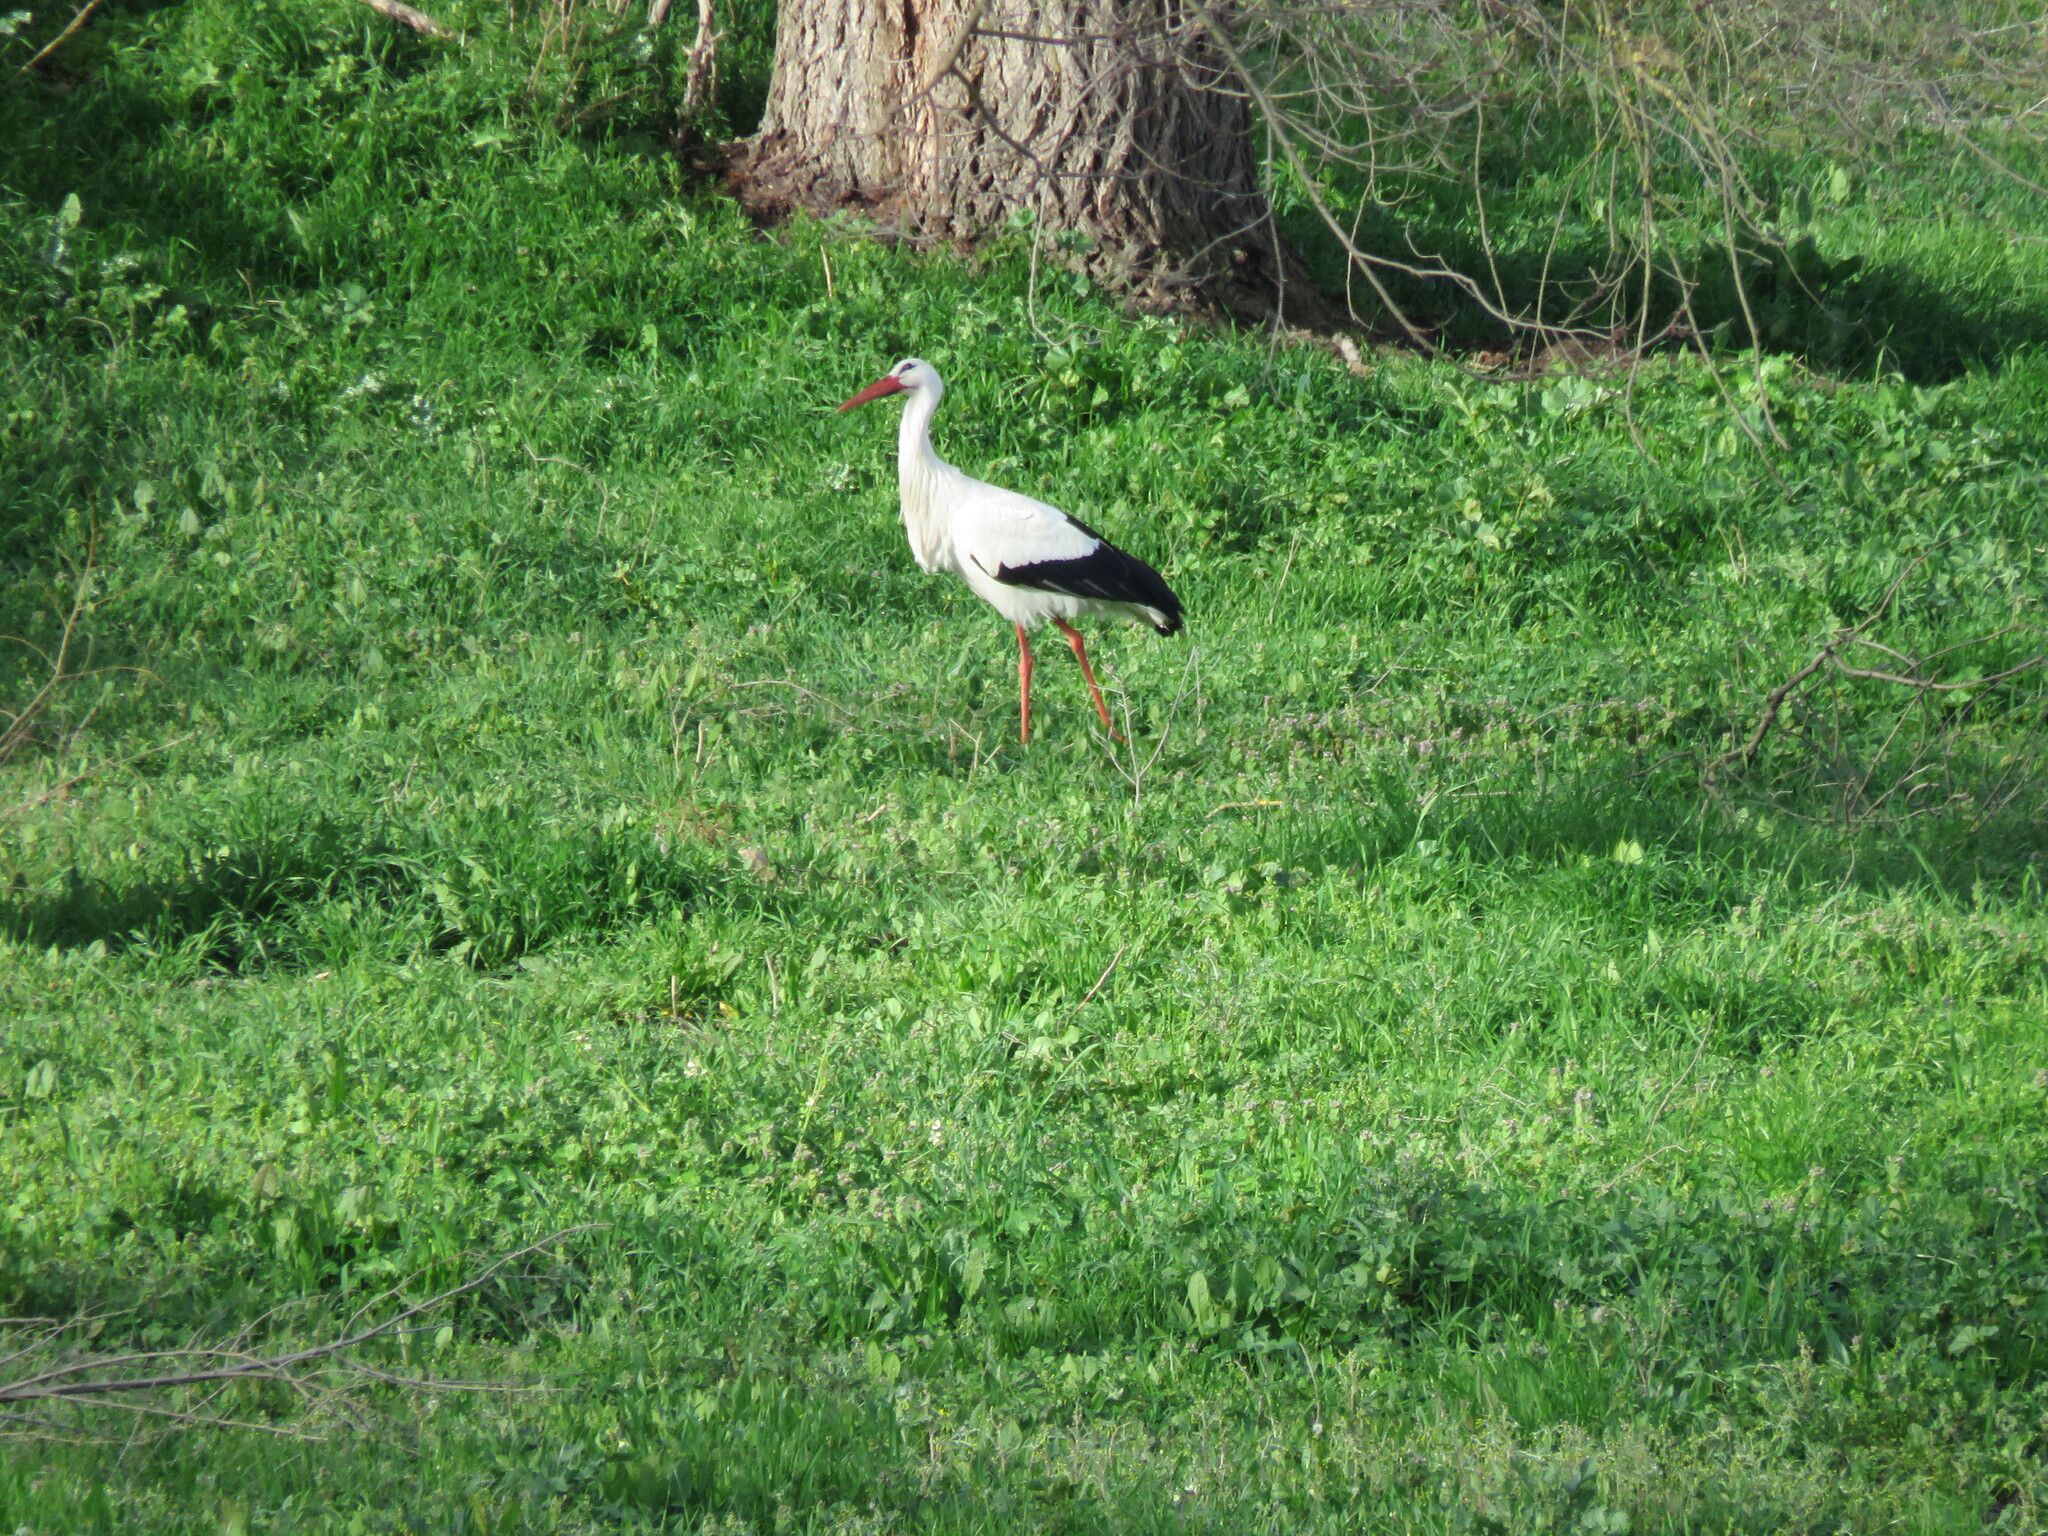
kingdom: Animalia
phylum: Chordata
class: Aves
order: Ciconiiformes
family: Ciconiidae
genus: Ciconia
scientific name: Ciconia ciconia
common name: White stork
